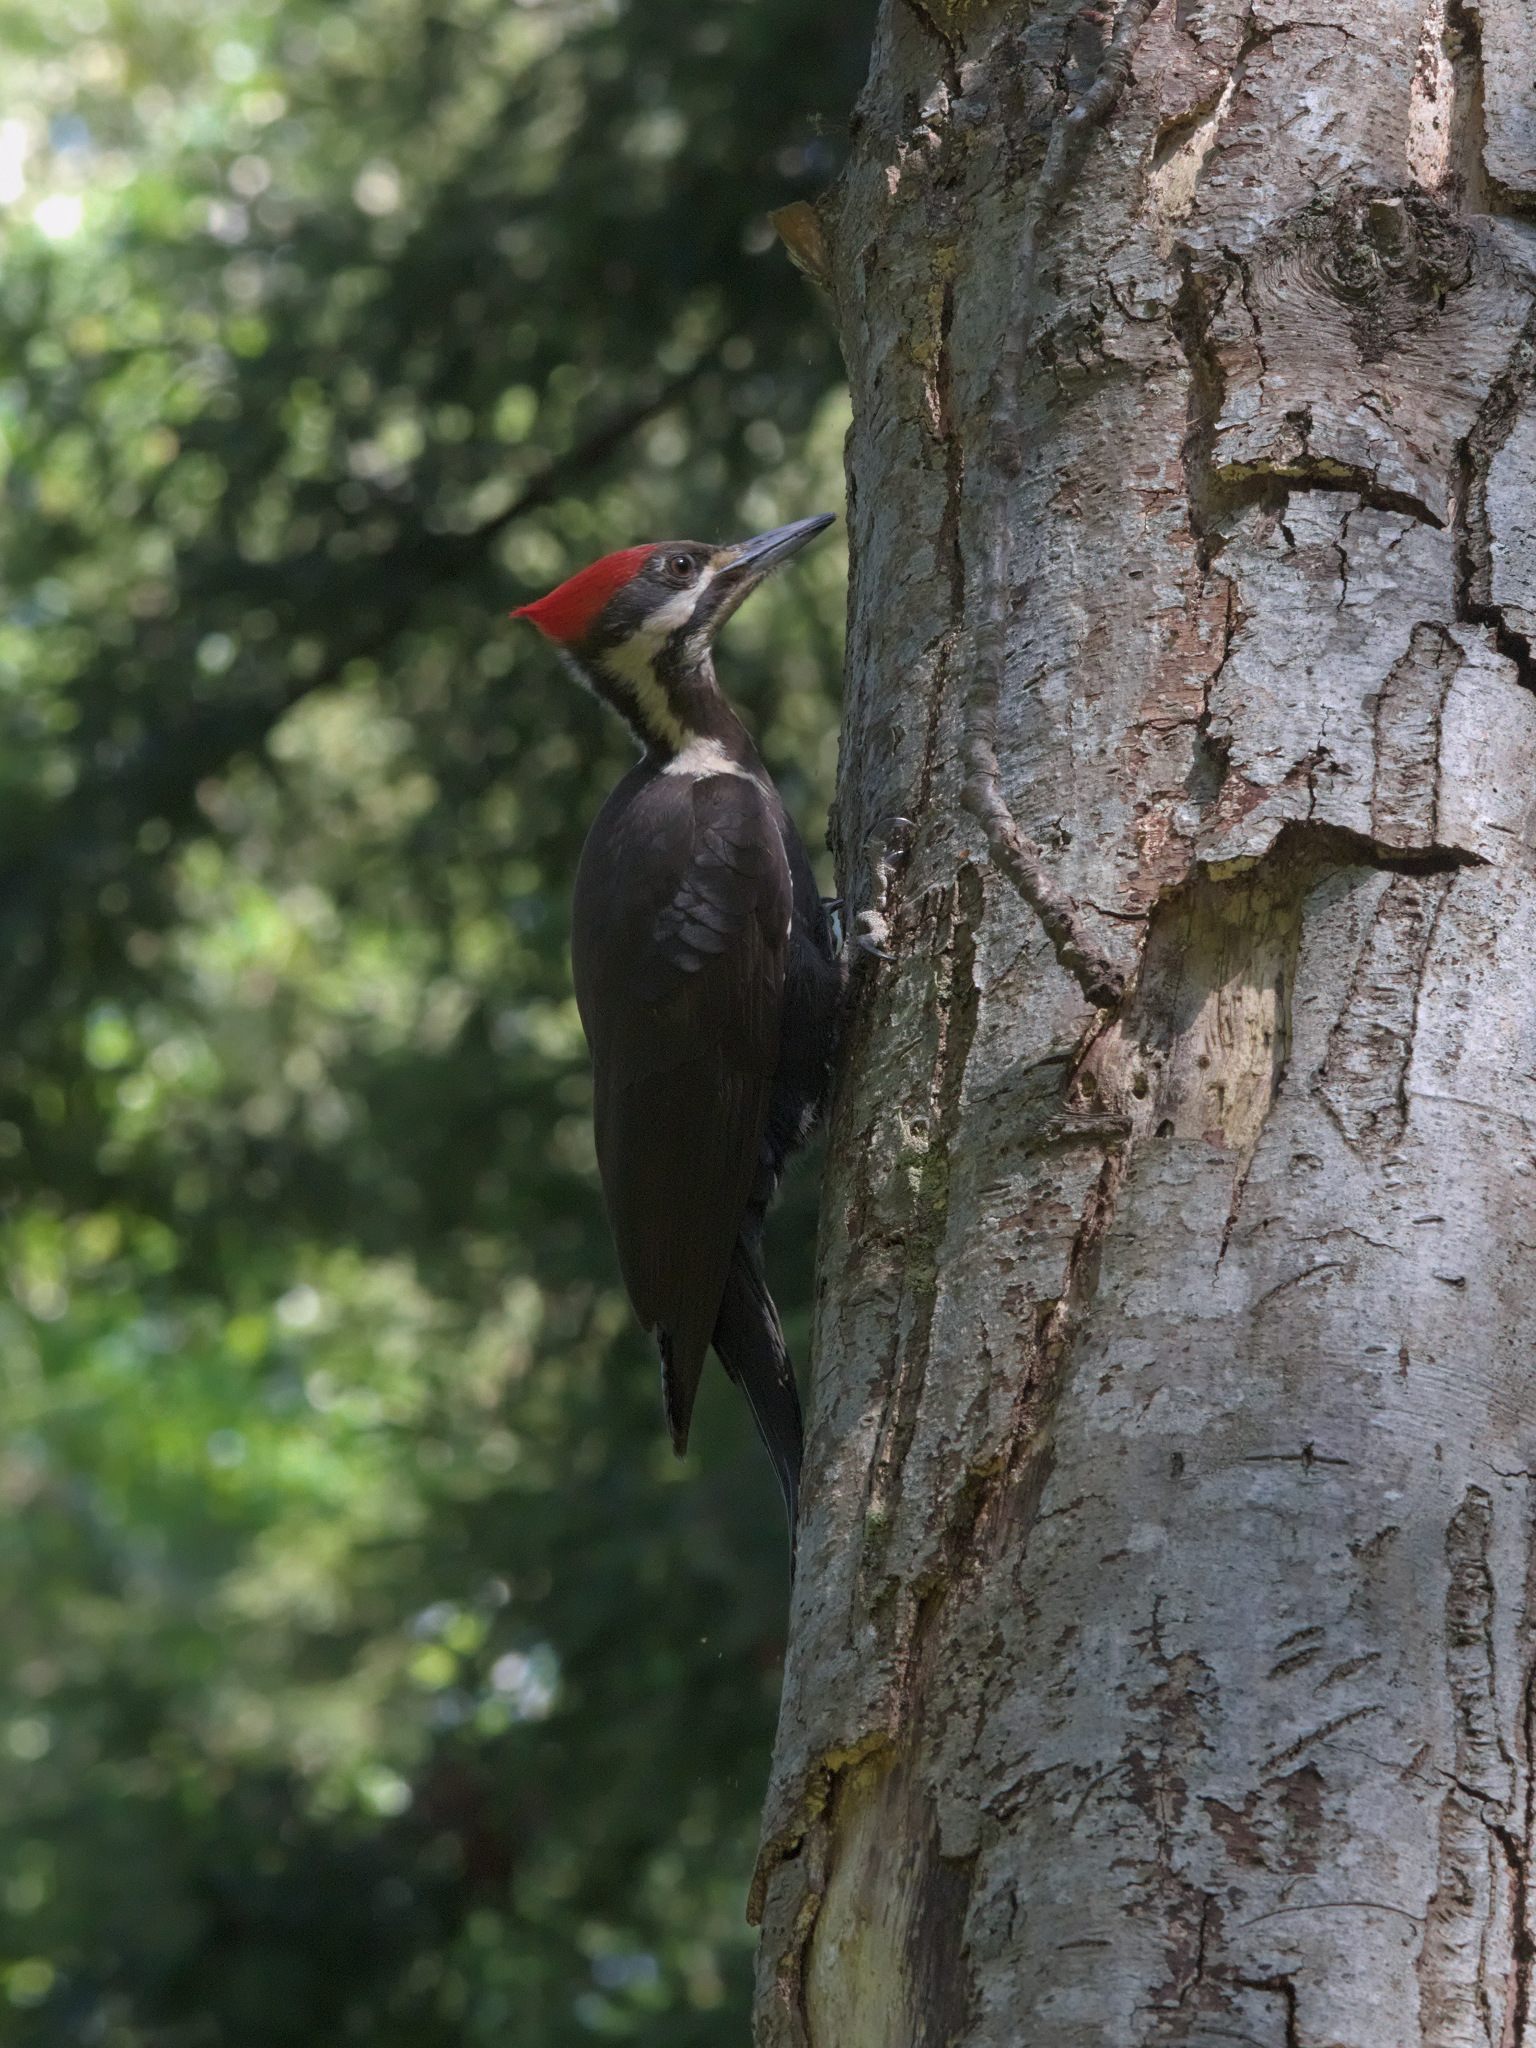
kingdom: Animalia
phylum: Chordata
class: Aves
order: Piciformes
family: Picidae
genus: Dryocopus
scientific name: Dryocopus pileatus
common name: Pileated woodpecker
